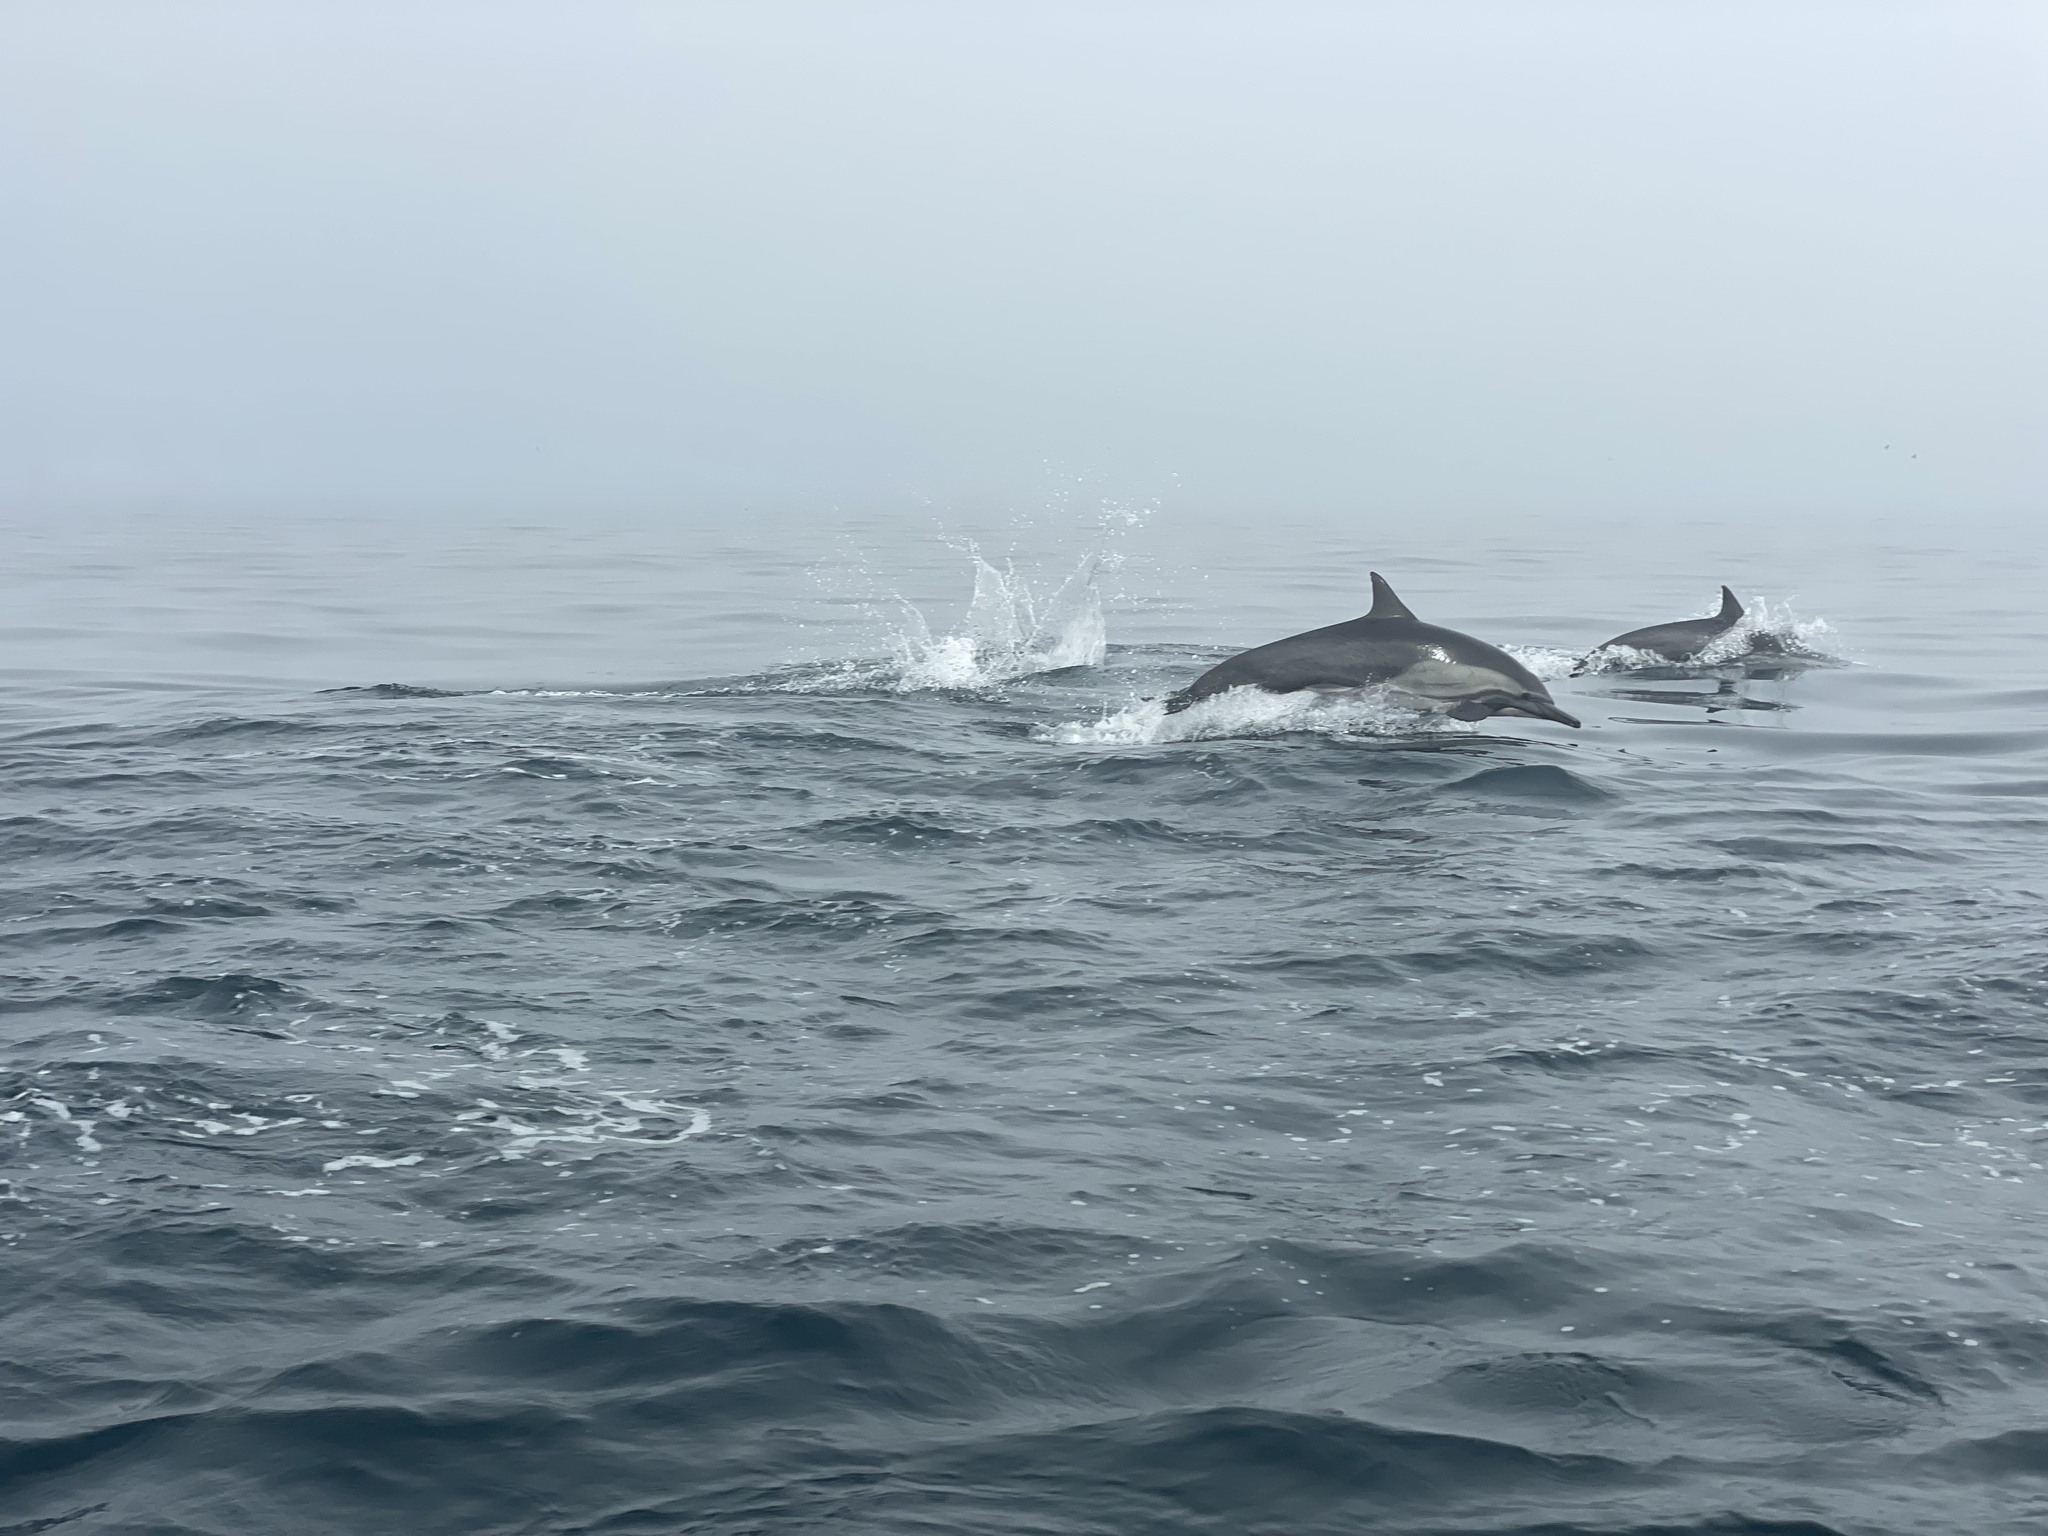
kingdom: Animalia
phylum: Chordata
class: Mammalia
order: Cetacea
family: Delphinidae
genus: Delphinus
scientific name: Delphinus delphis
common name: Common dolphin
